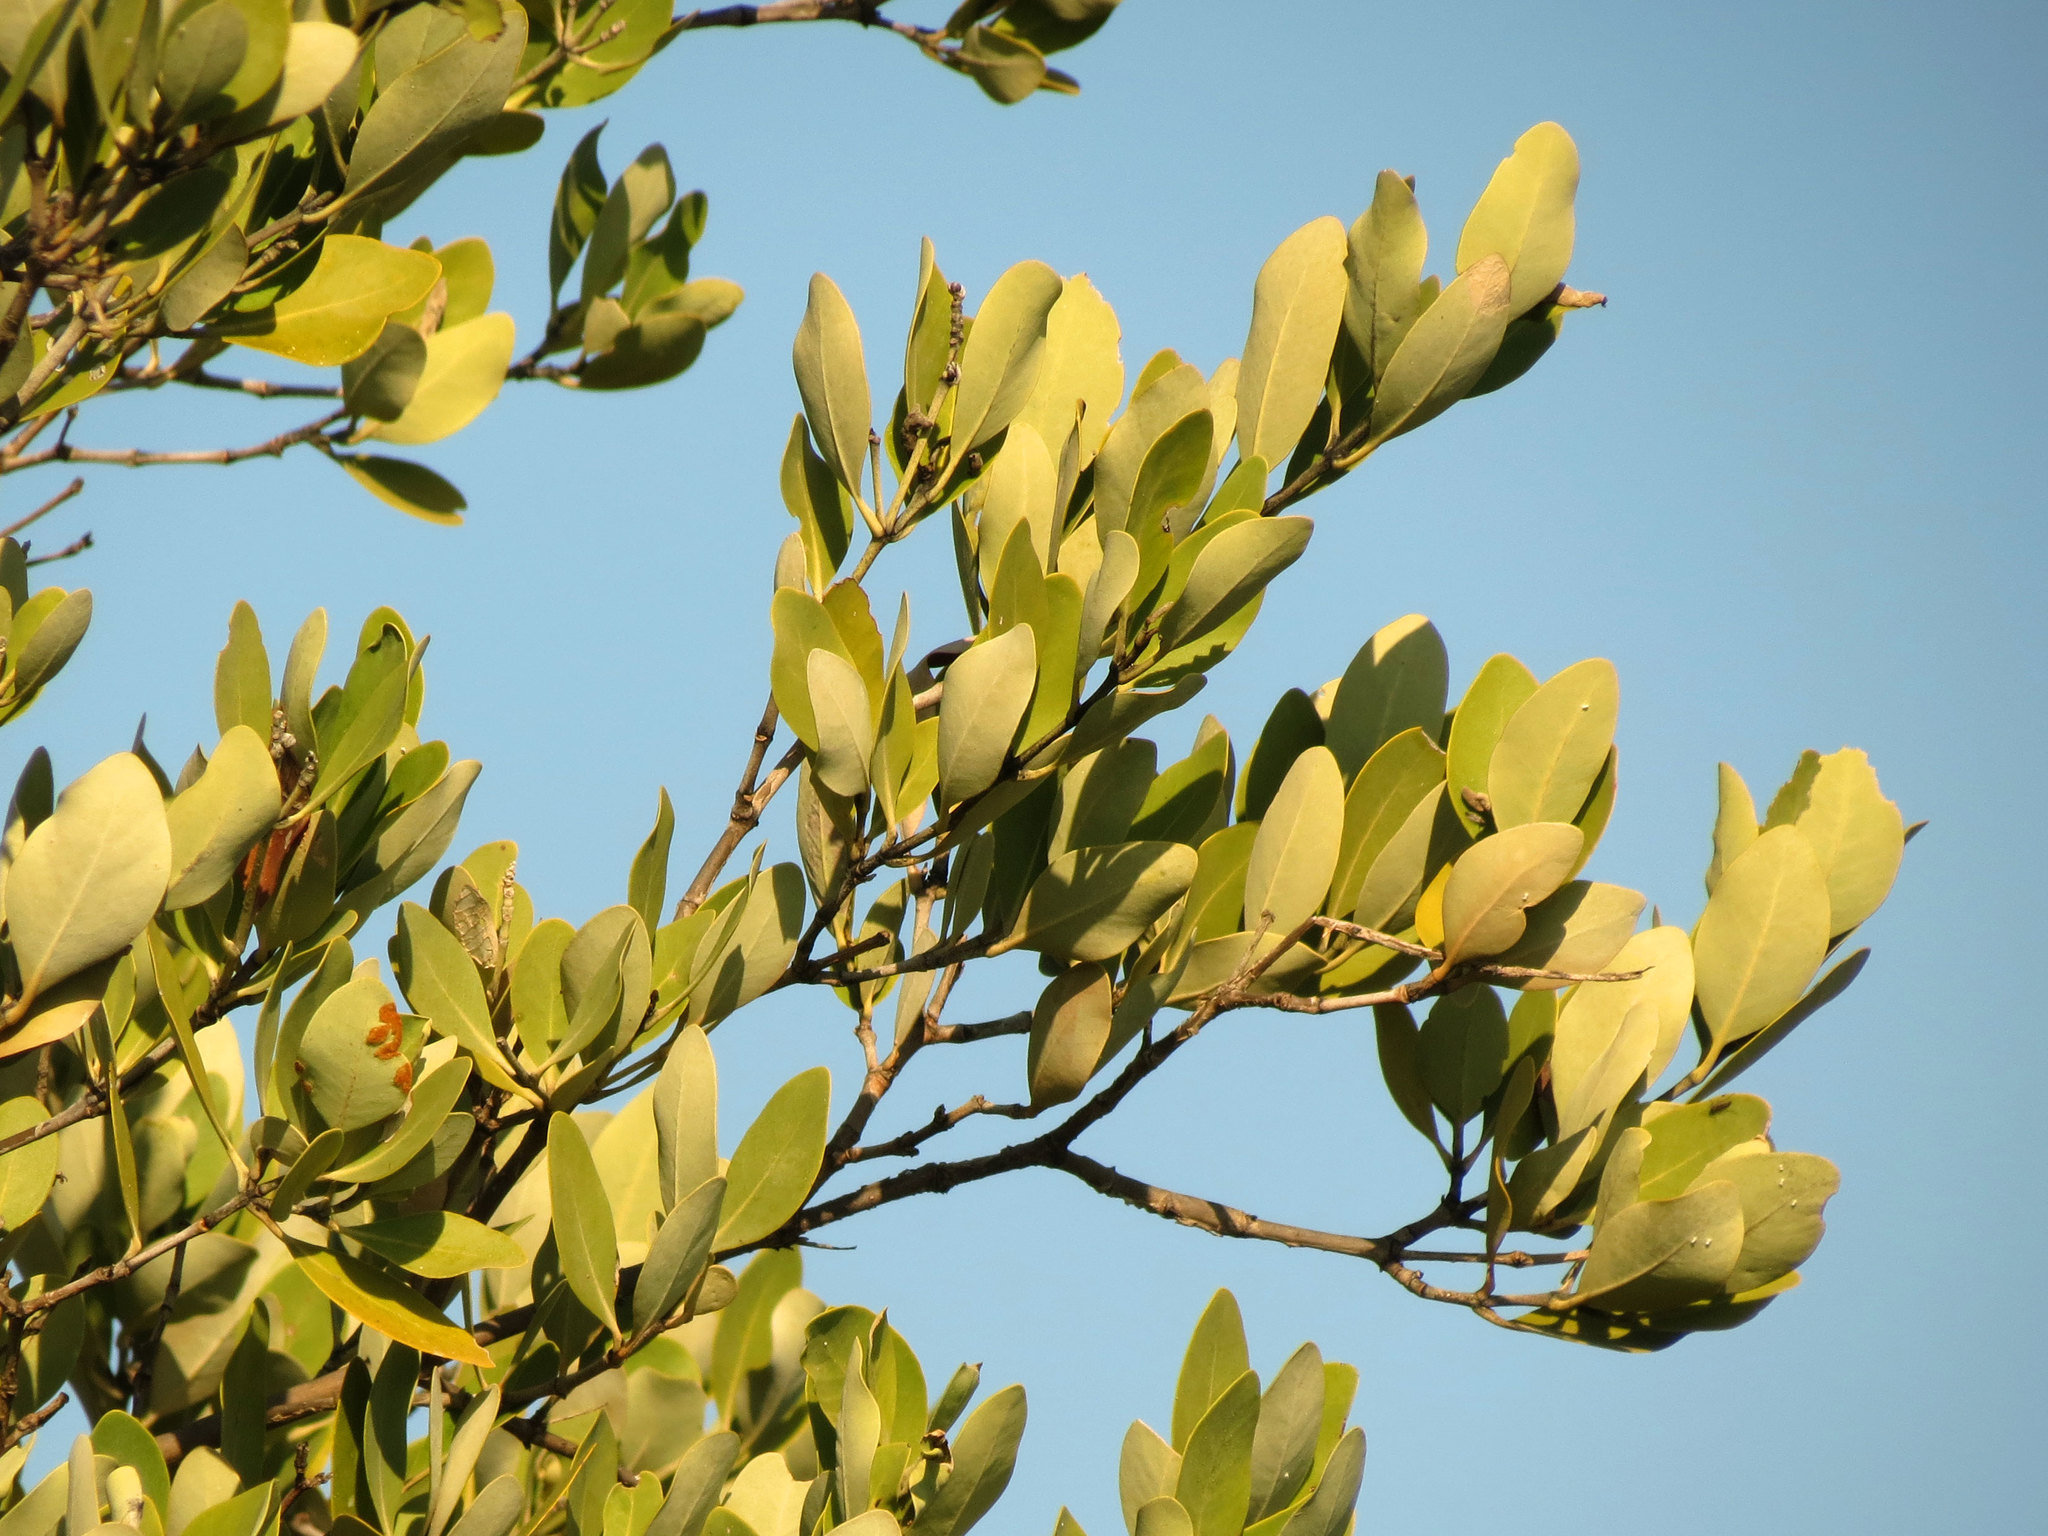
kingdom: Plantae
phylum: Tracheophyta
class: Magnoliopsida
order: Lamiales
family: Acanthaceae
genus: Avicennia
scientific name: Avicennia germinans
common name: Black mangrove
